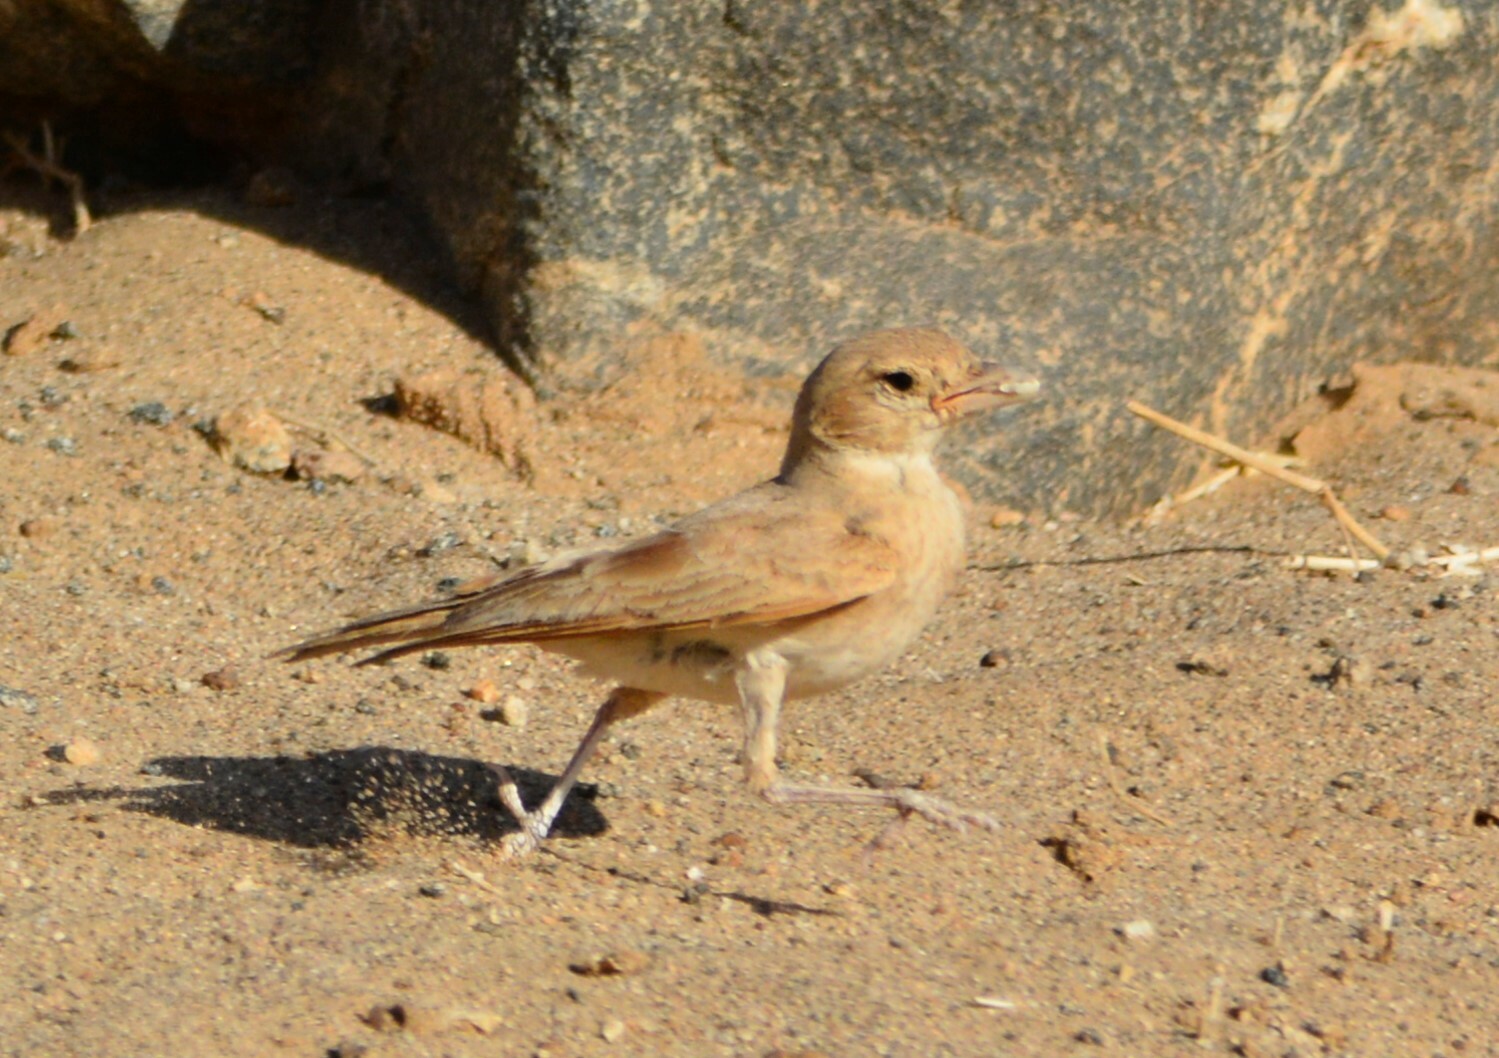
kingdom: Animalia
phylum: Chordata
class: Aves
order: Passeriformes
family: Alaudidae
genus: Eremalauda
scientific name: Eremalauda dunni
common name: Dunn's lark
